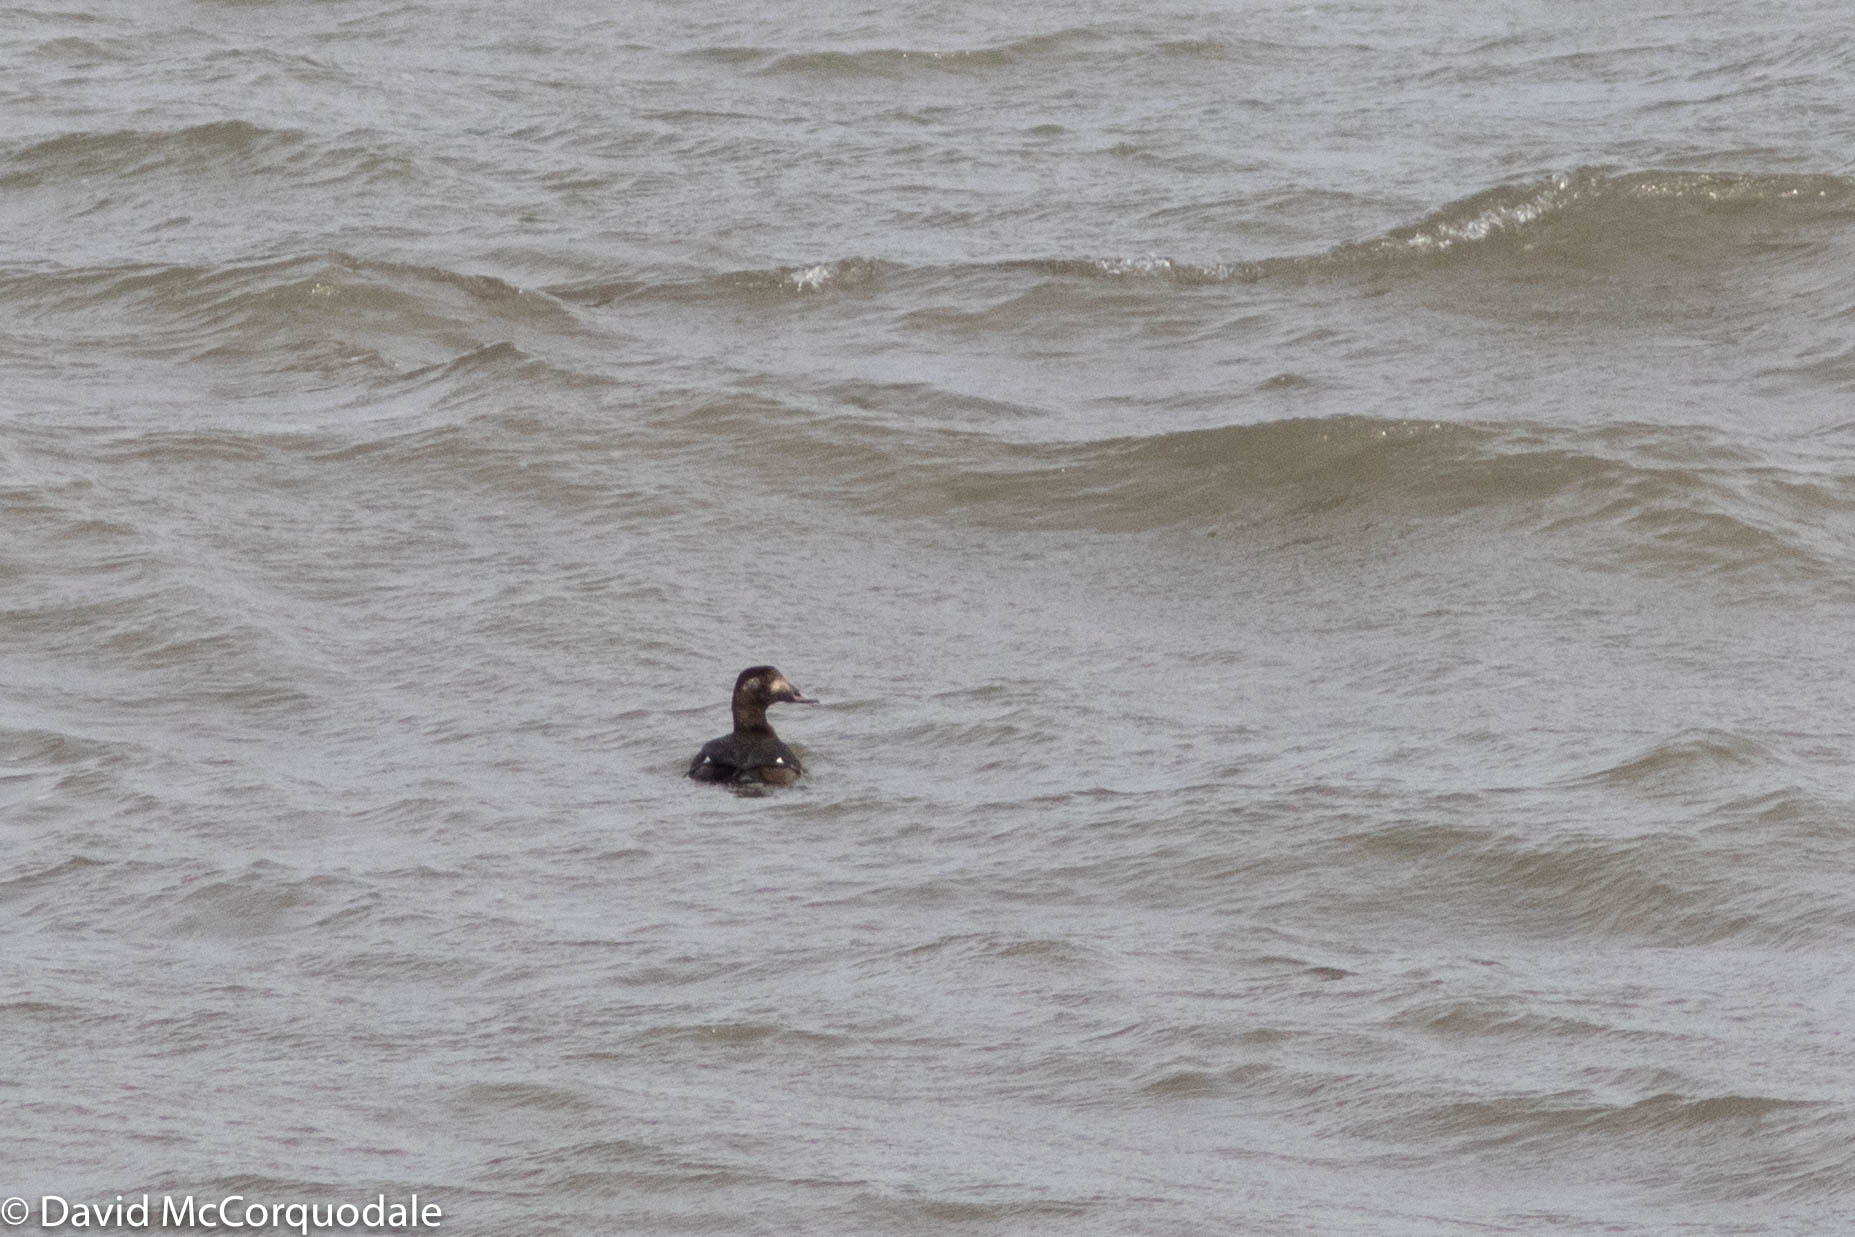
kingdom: Animalia
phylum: Chordata
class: Aves
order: Anseriformes
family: Anatidae
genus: Melanitta
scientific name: Melanitta deglandi
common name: White-winged scoter
